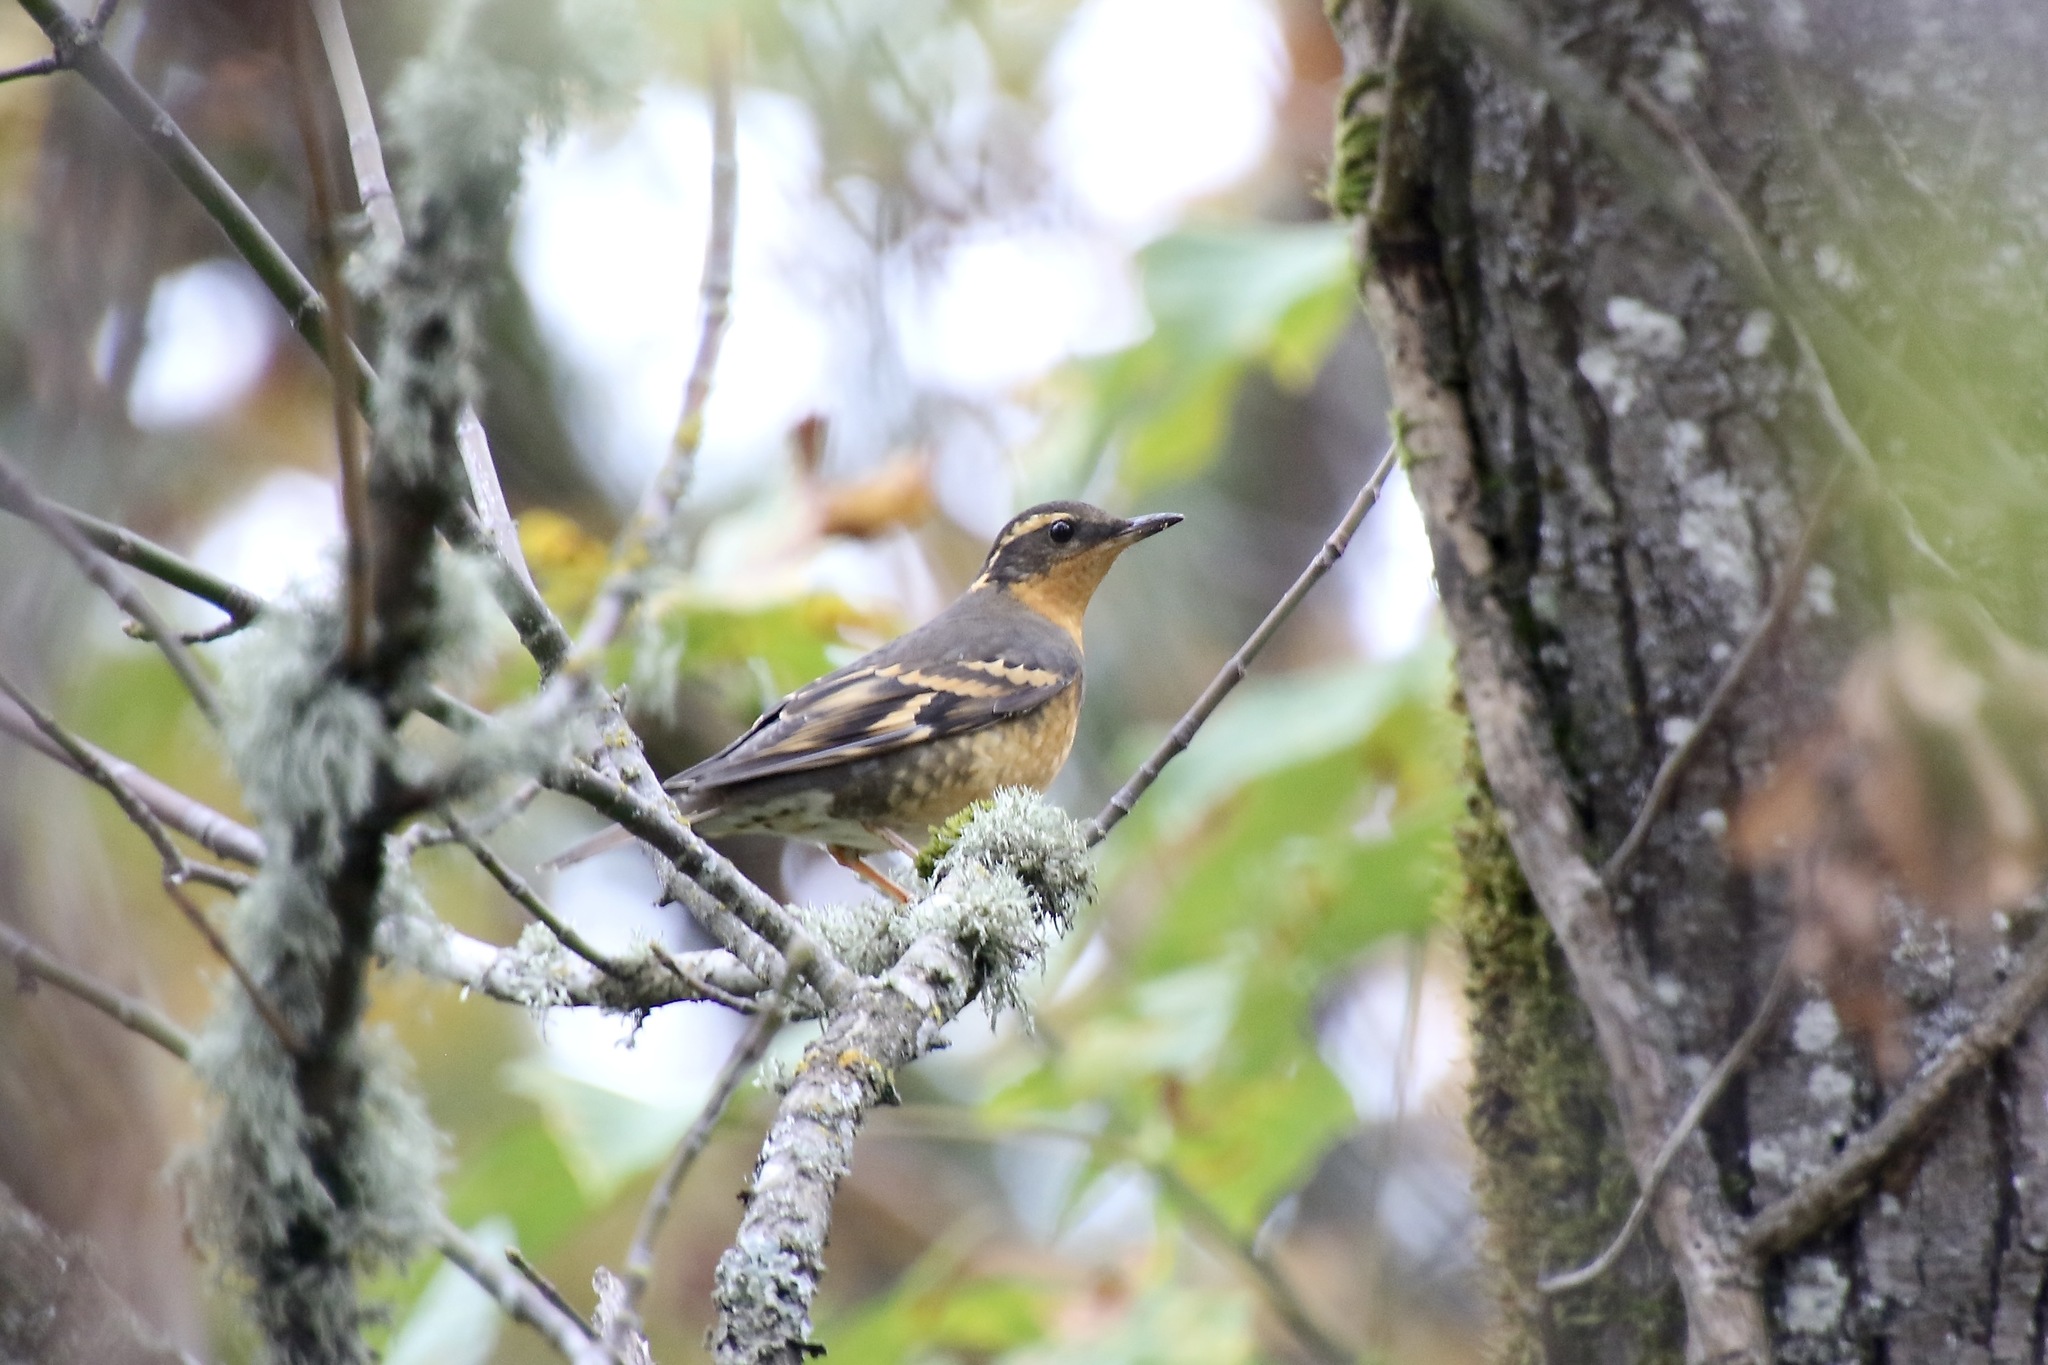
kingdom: Animalia
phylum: Chordata
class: Aves
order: Passeriformes
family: Turdidae
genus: Ixoreus
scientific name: Ixoreus naevius
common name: Varied thrush
